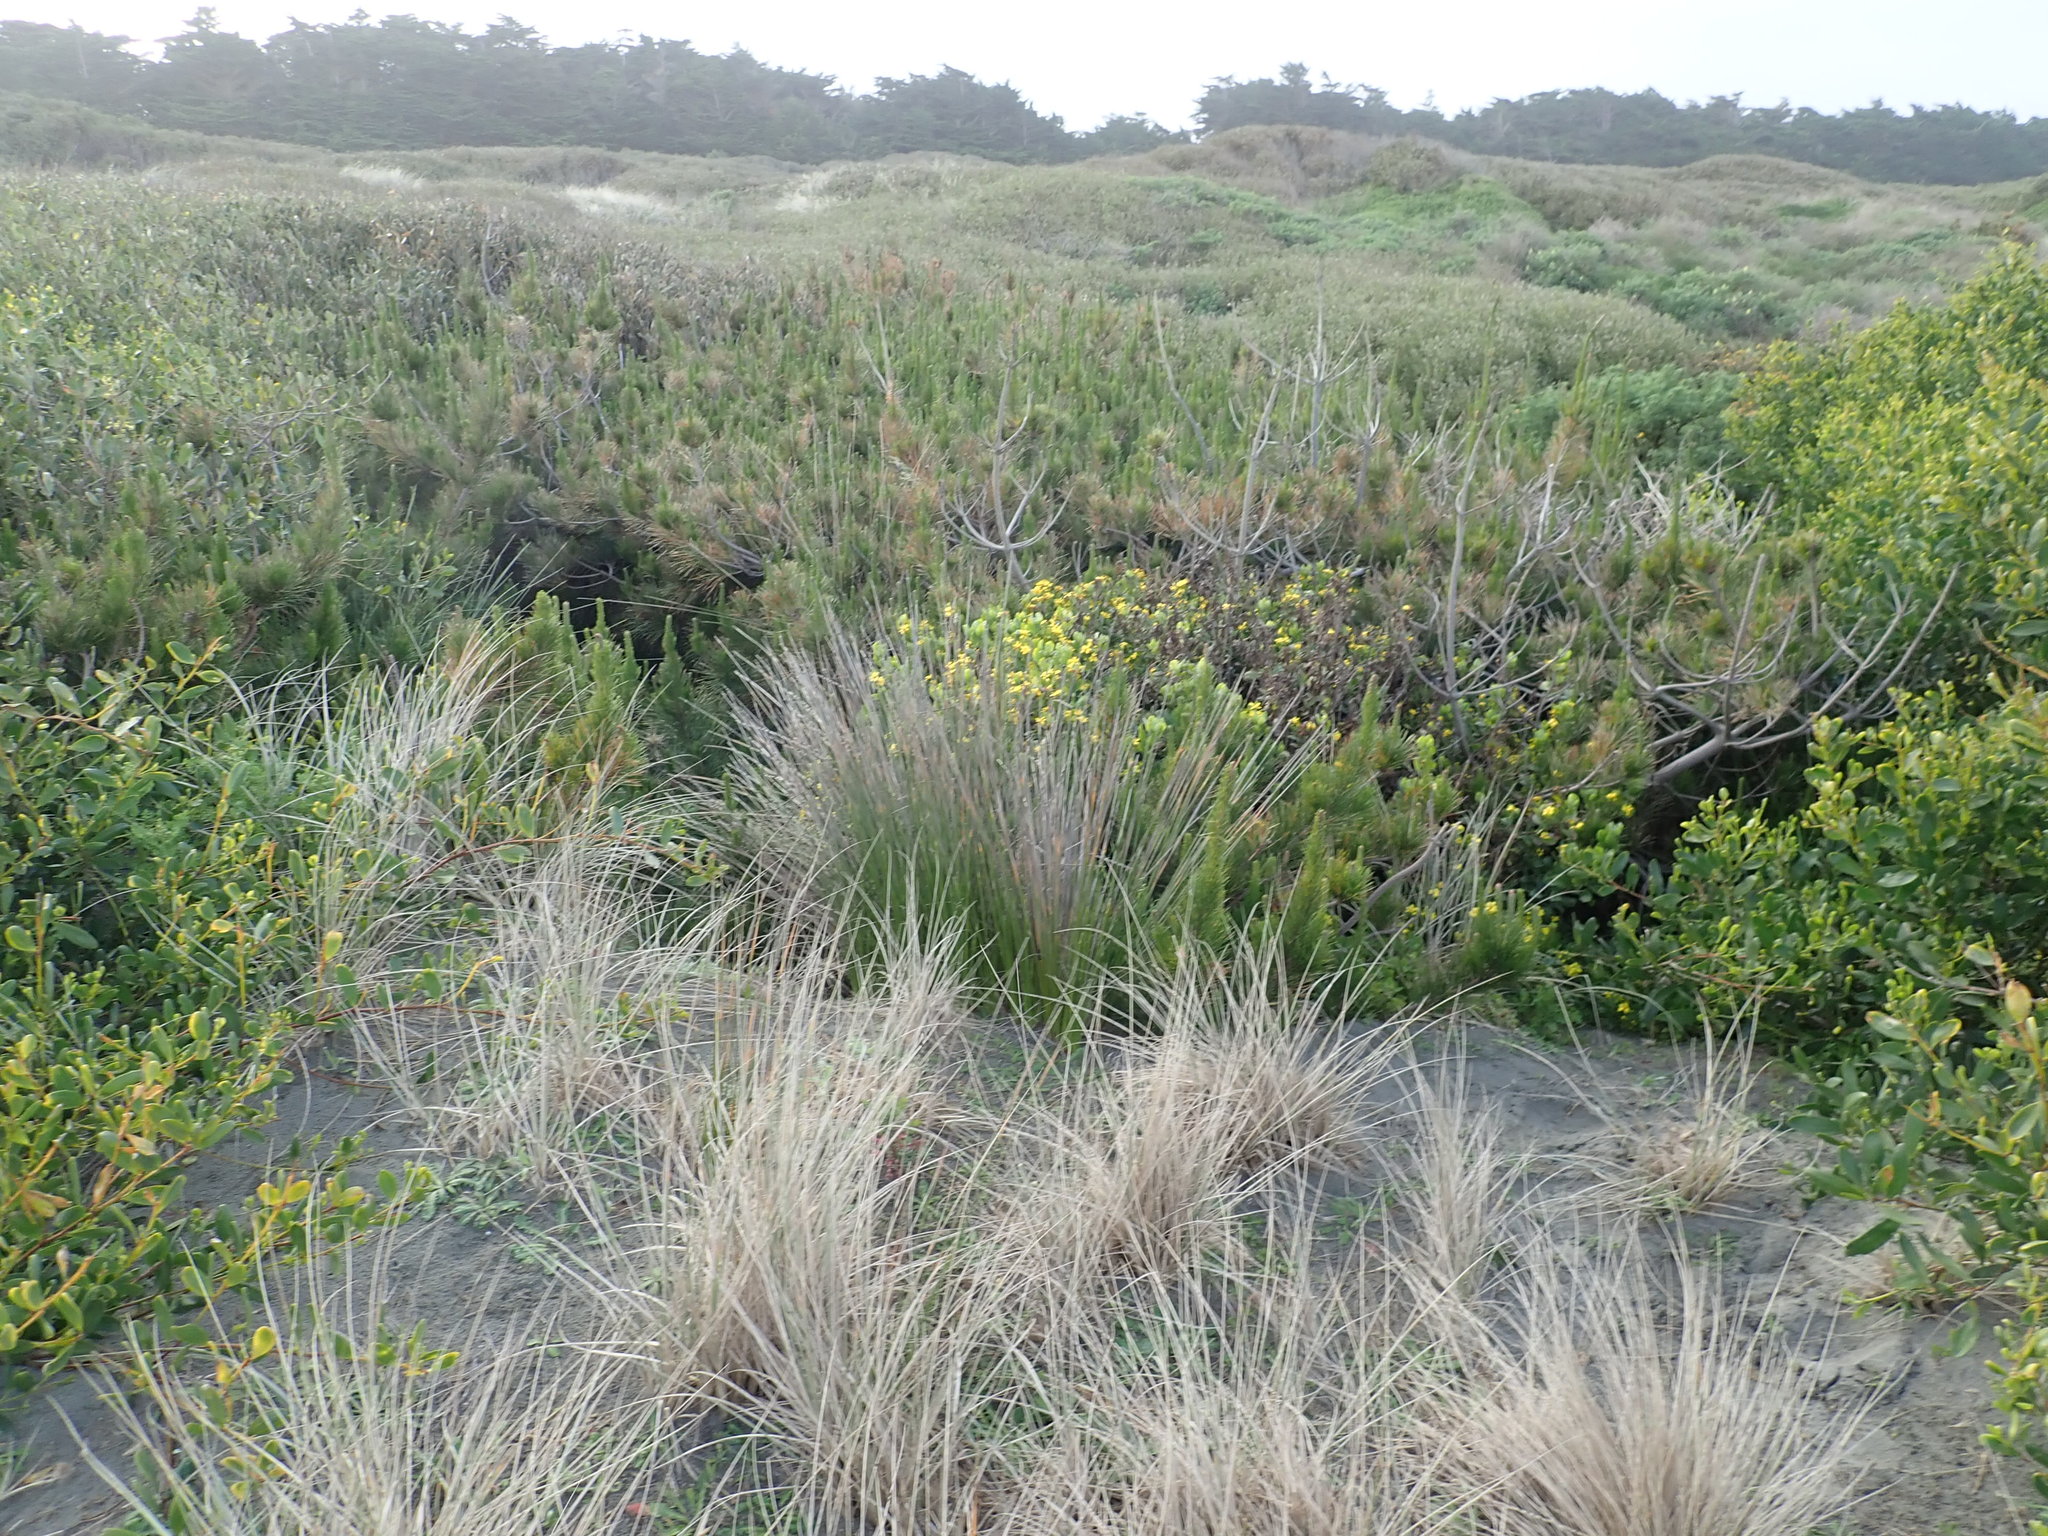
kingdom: Plantae
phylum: Tracheophyta
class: Pinopsida
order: Pinales
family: Pinaceae
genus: Pinus
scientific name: Pinus radiata
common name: Monterey pine
